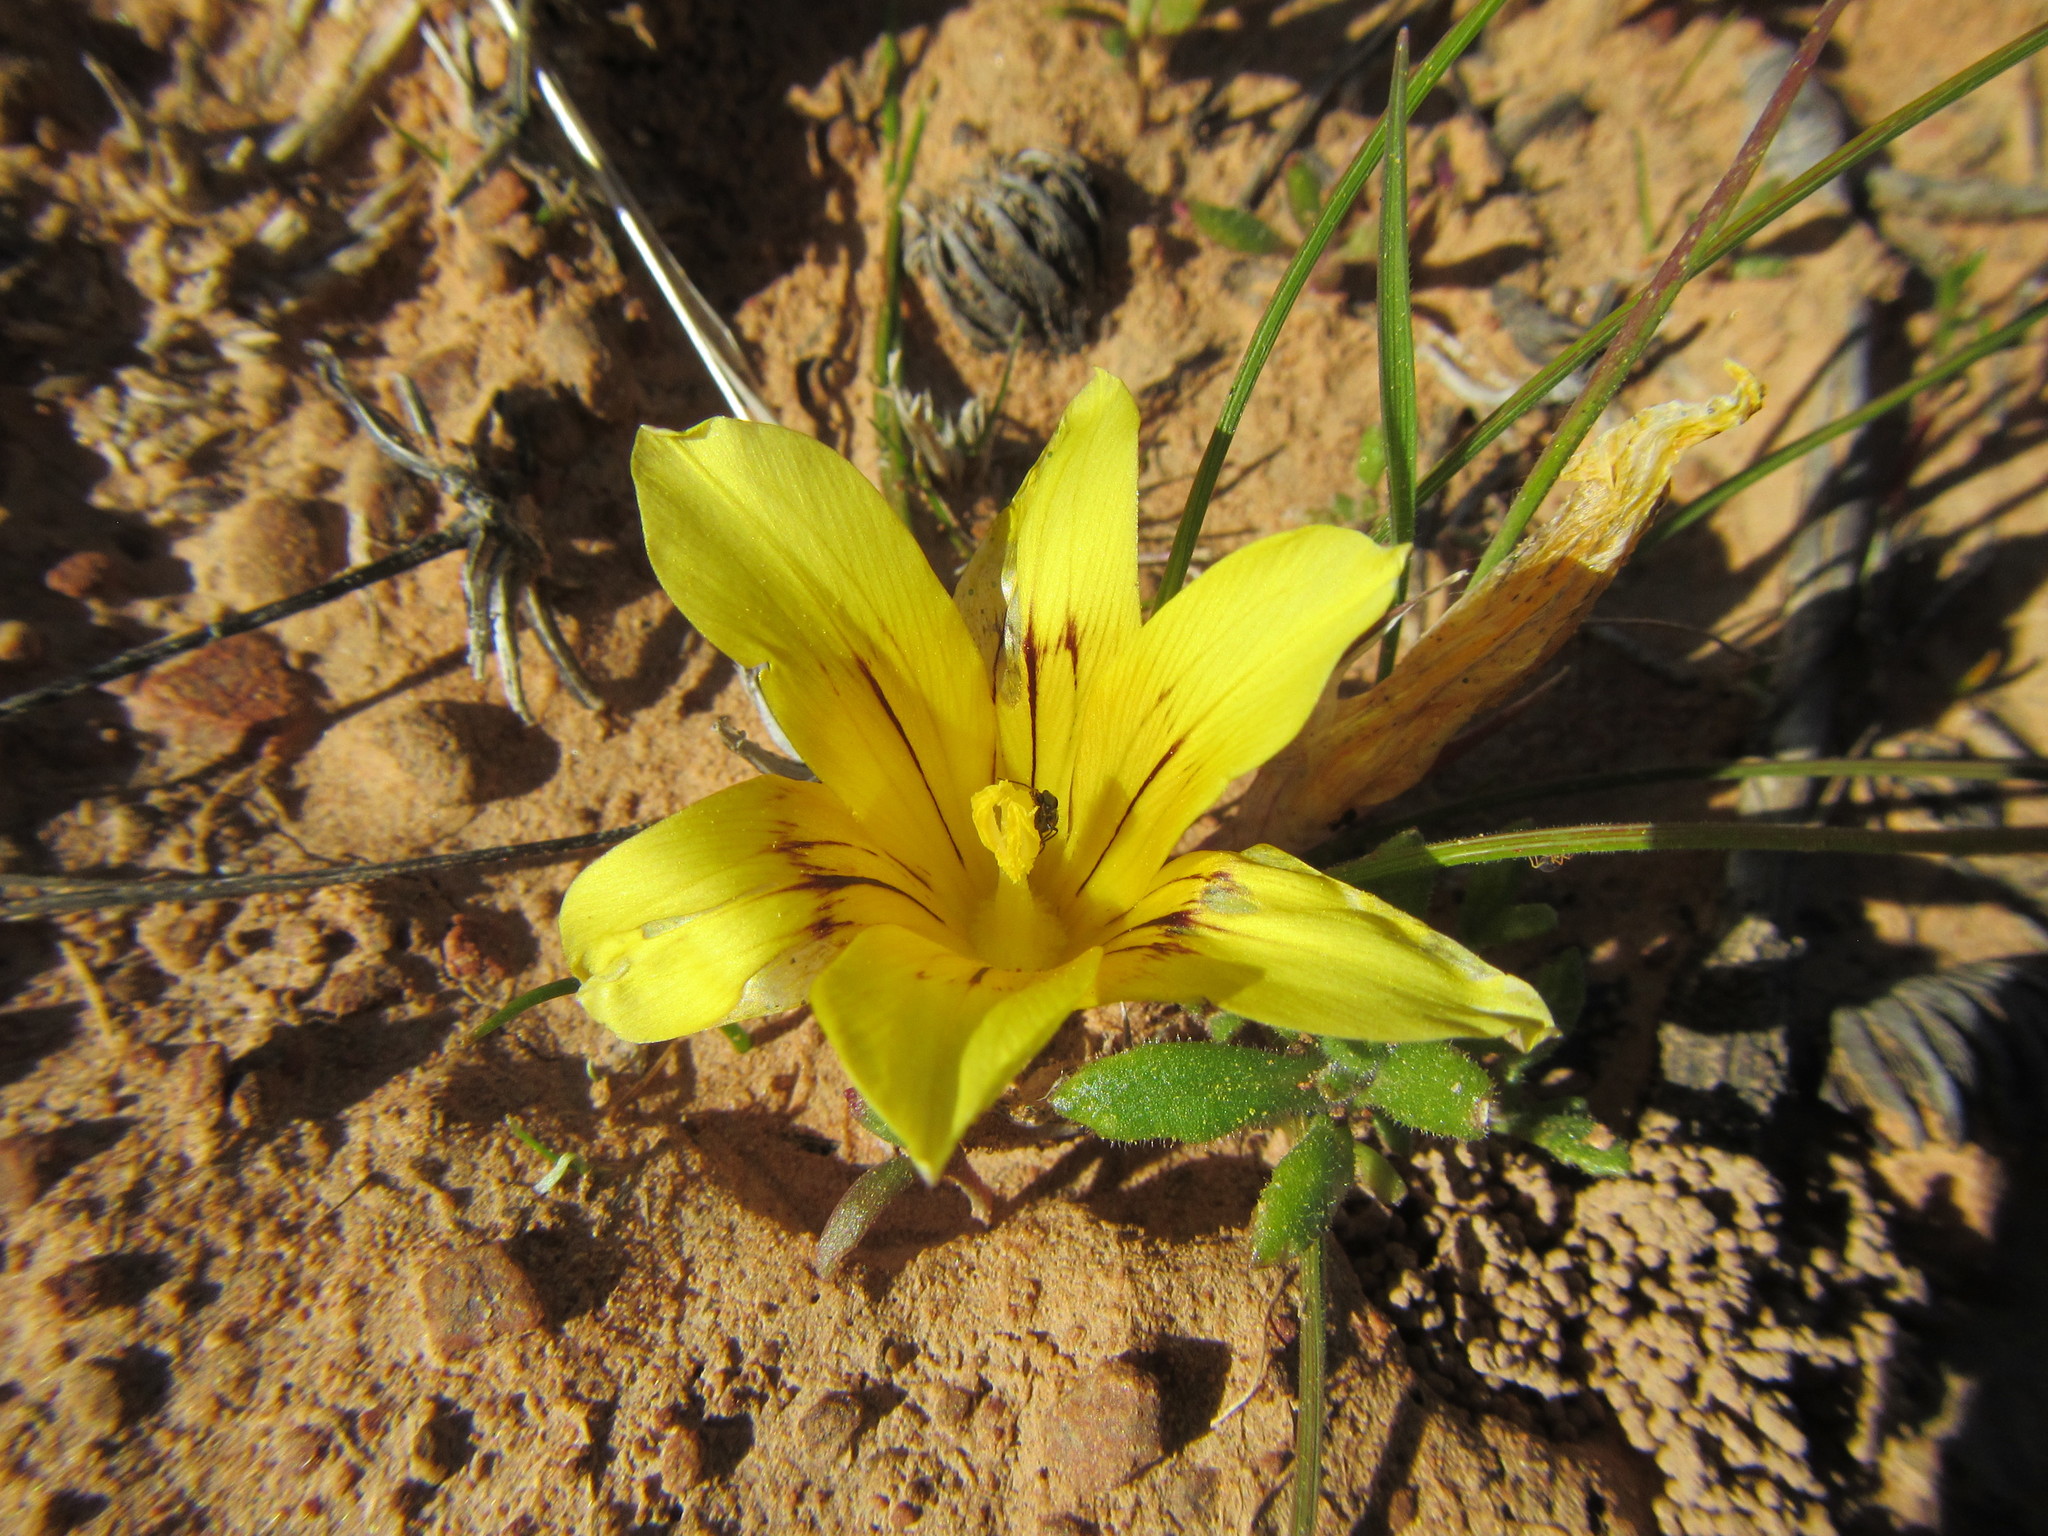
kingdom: Plantae
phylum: Tracheophyta
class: Liliopsida
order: Asparagales
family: Iridaceae
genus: Romulea
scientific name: Romulea tortuosa
